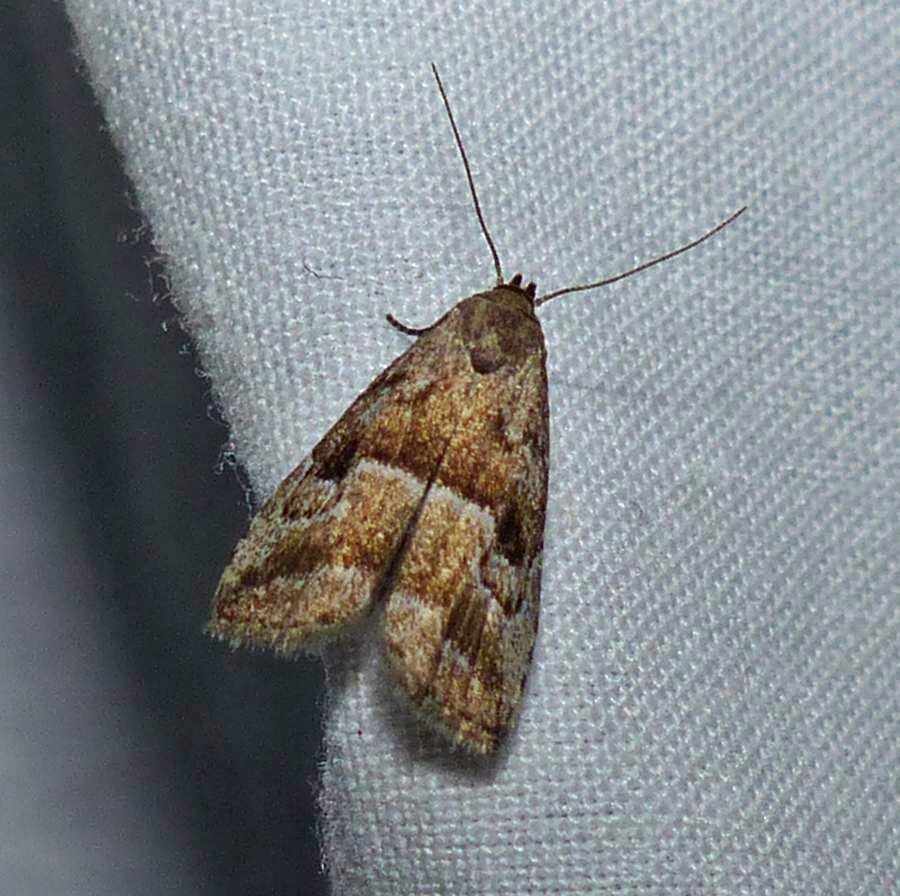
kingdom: Animalia
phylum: Arthropoda
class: Insecta
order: Lepidoptera
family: Erebidae
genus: Hypenodes
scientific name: Hypenodes caducus
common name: Large hypenodes moth
